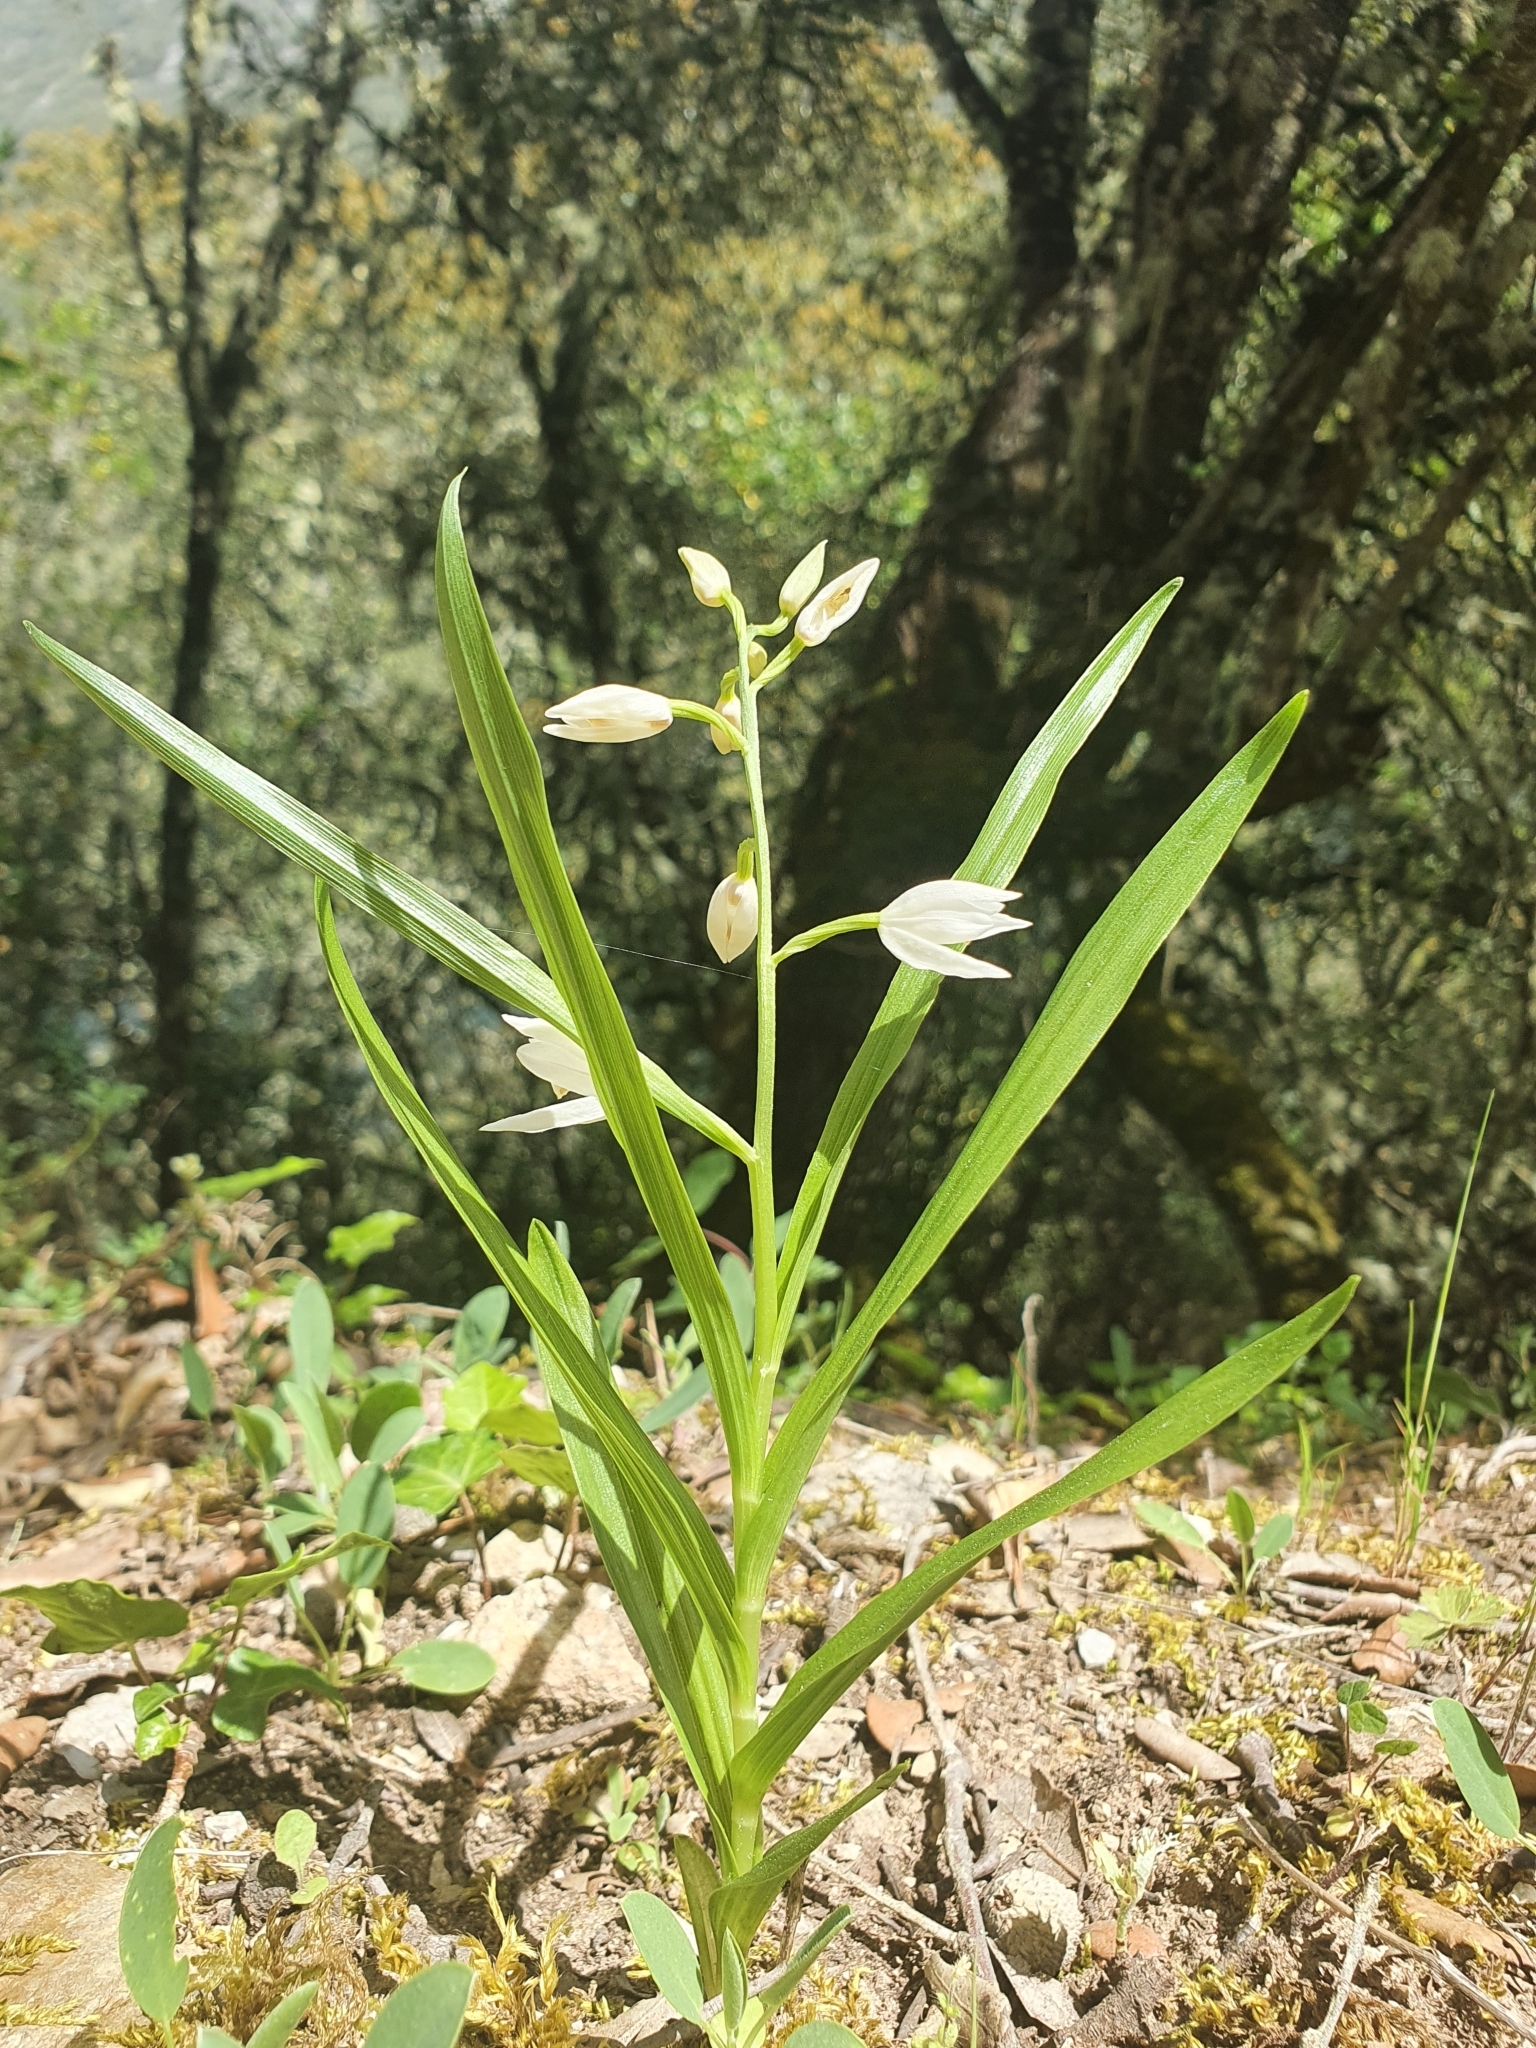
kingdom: Plantae
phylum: Tracheophyta
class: Liliopsida
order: Asparagales
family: Orchidaceae
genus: Cephalanthera
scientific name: Cephalanthera longifolia
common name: Narrow-leaved helleborine
